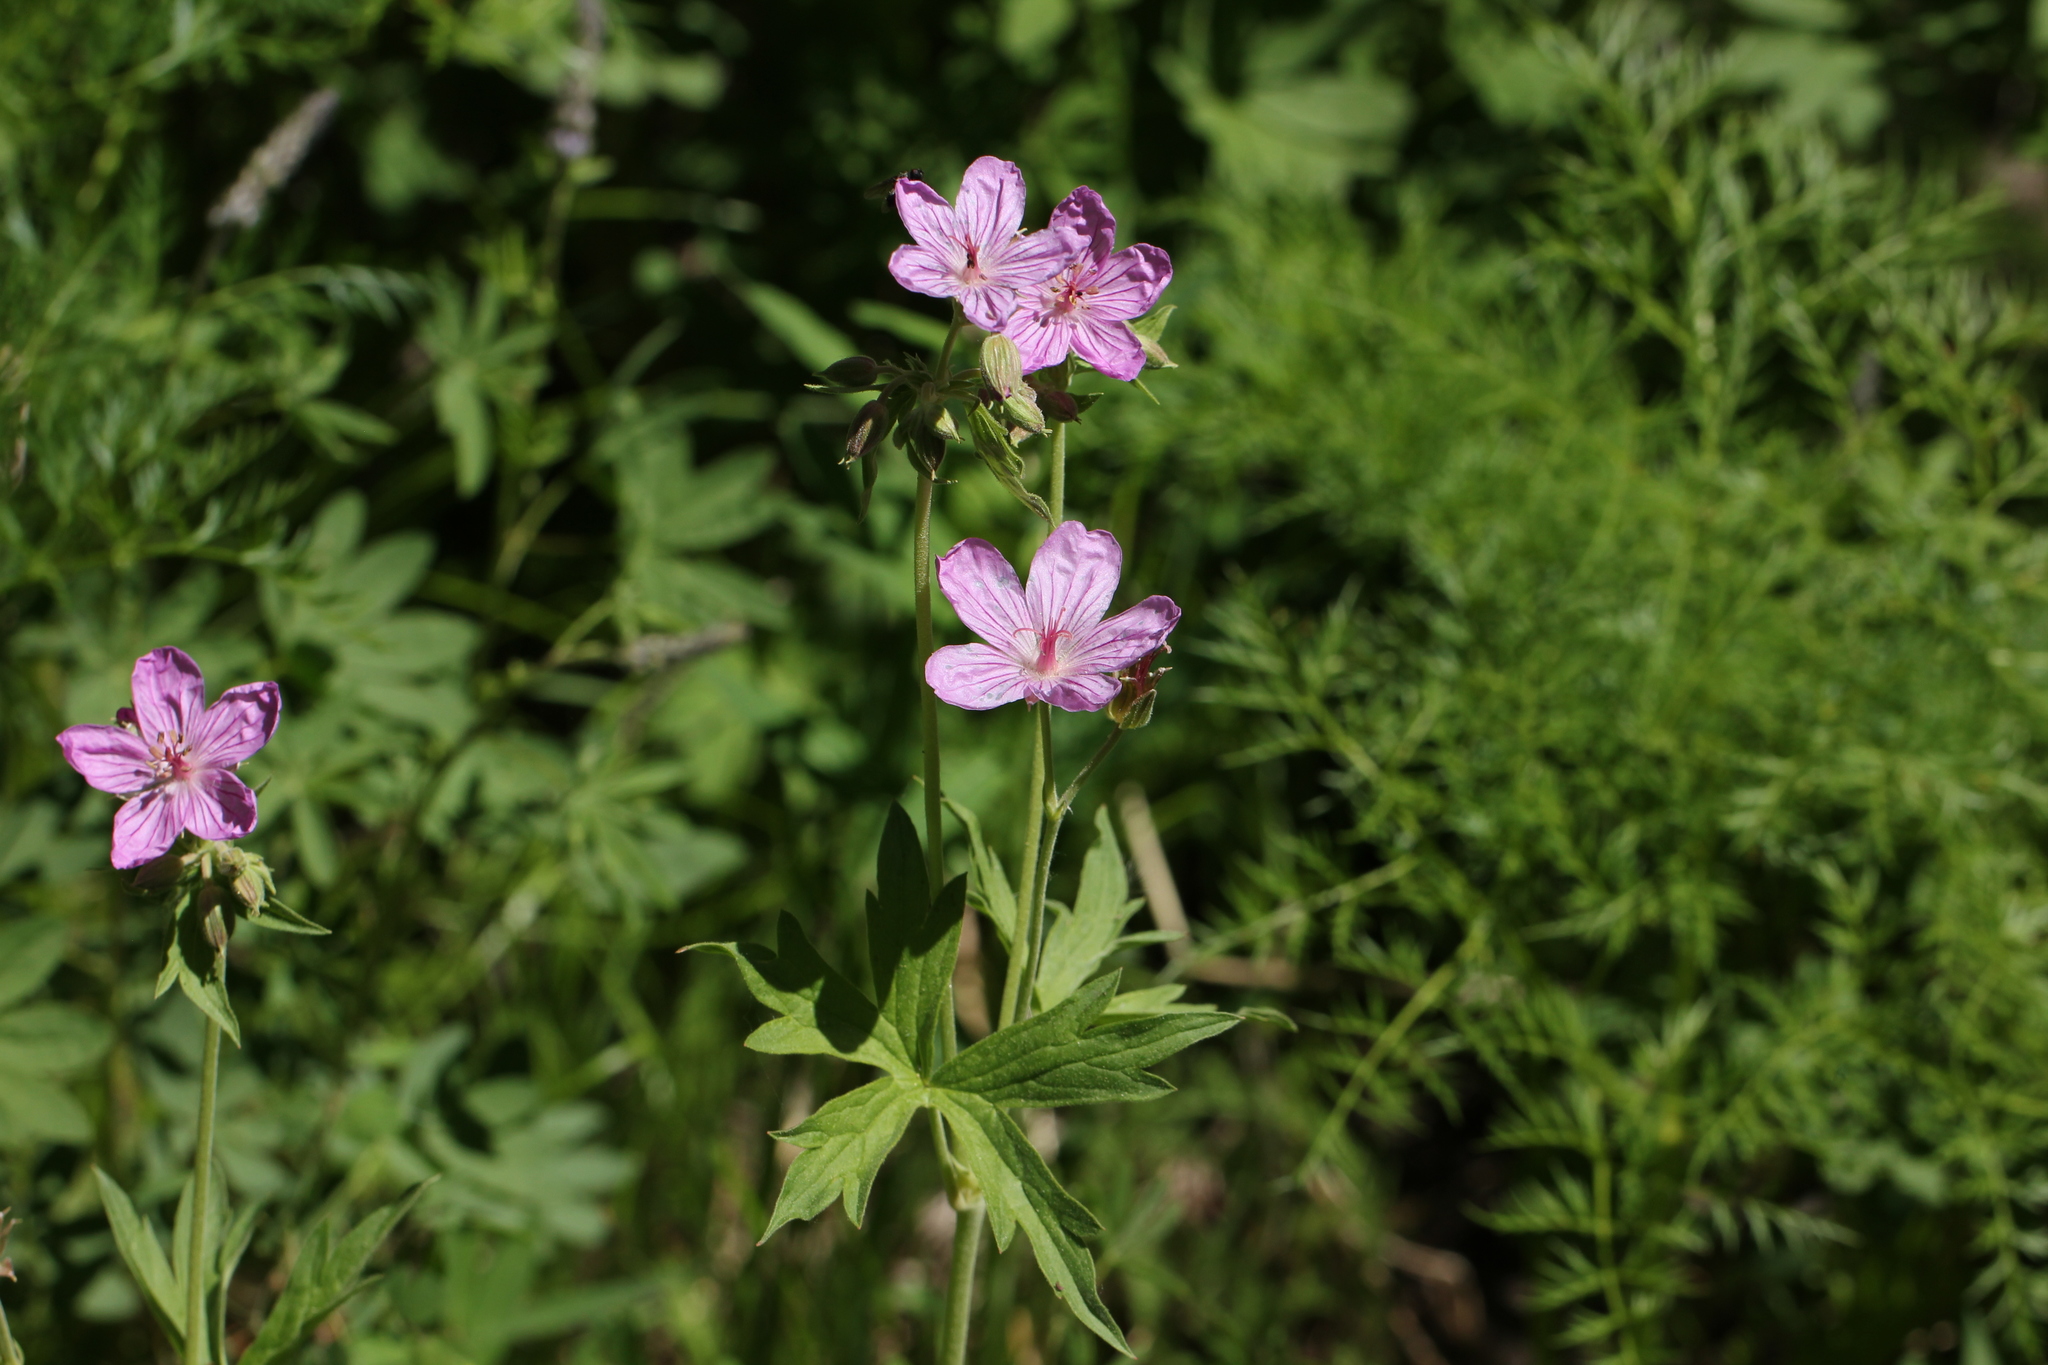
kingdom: Plantae
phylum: Tracheophyta
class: Magnoliopsida
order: Geraniales
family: Geraniaceae
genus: Geranium
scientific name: Geranium viscosissimum
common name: Purple geranium
